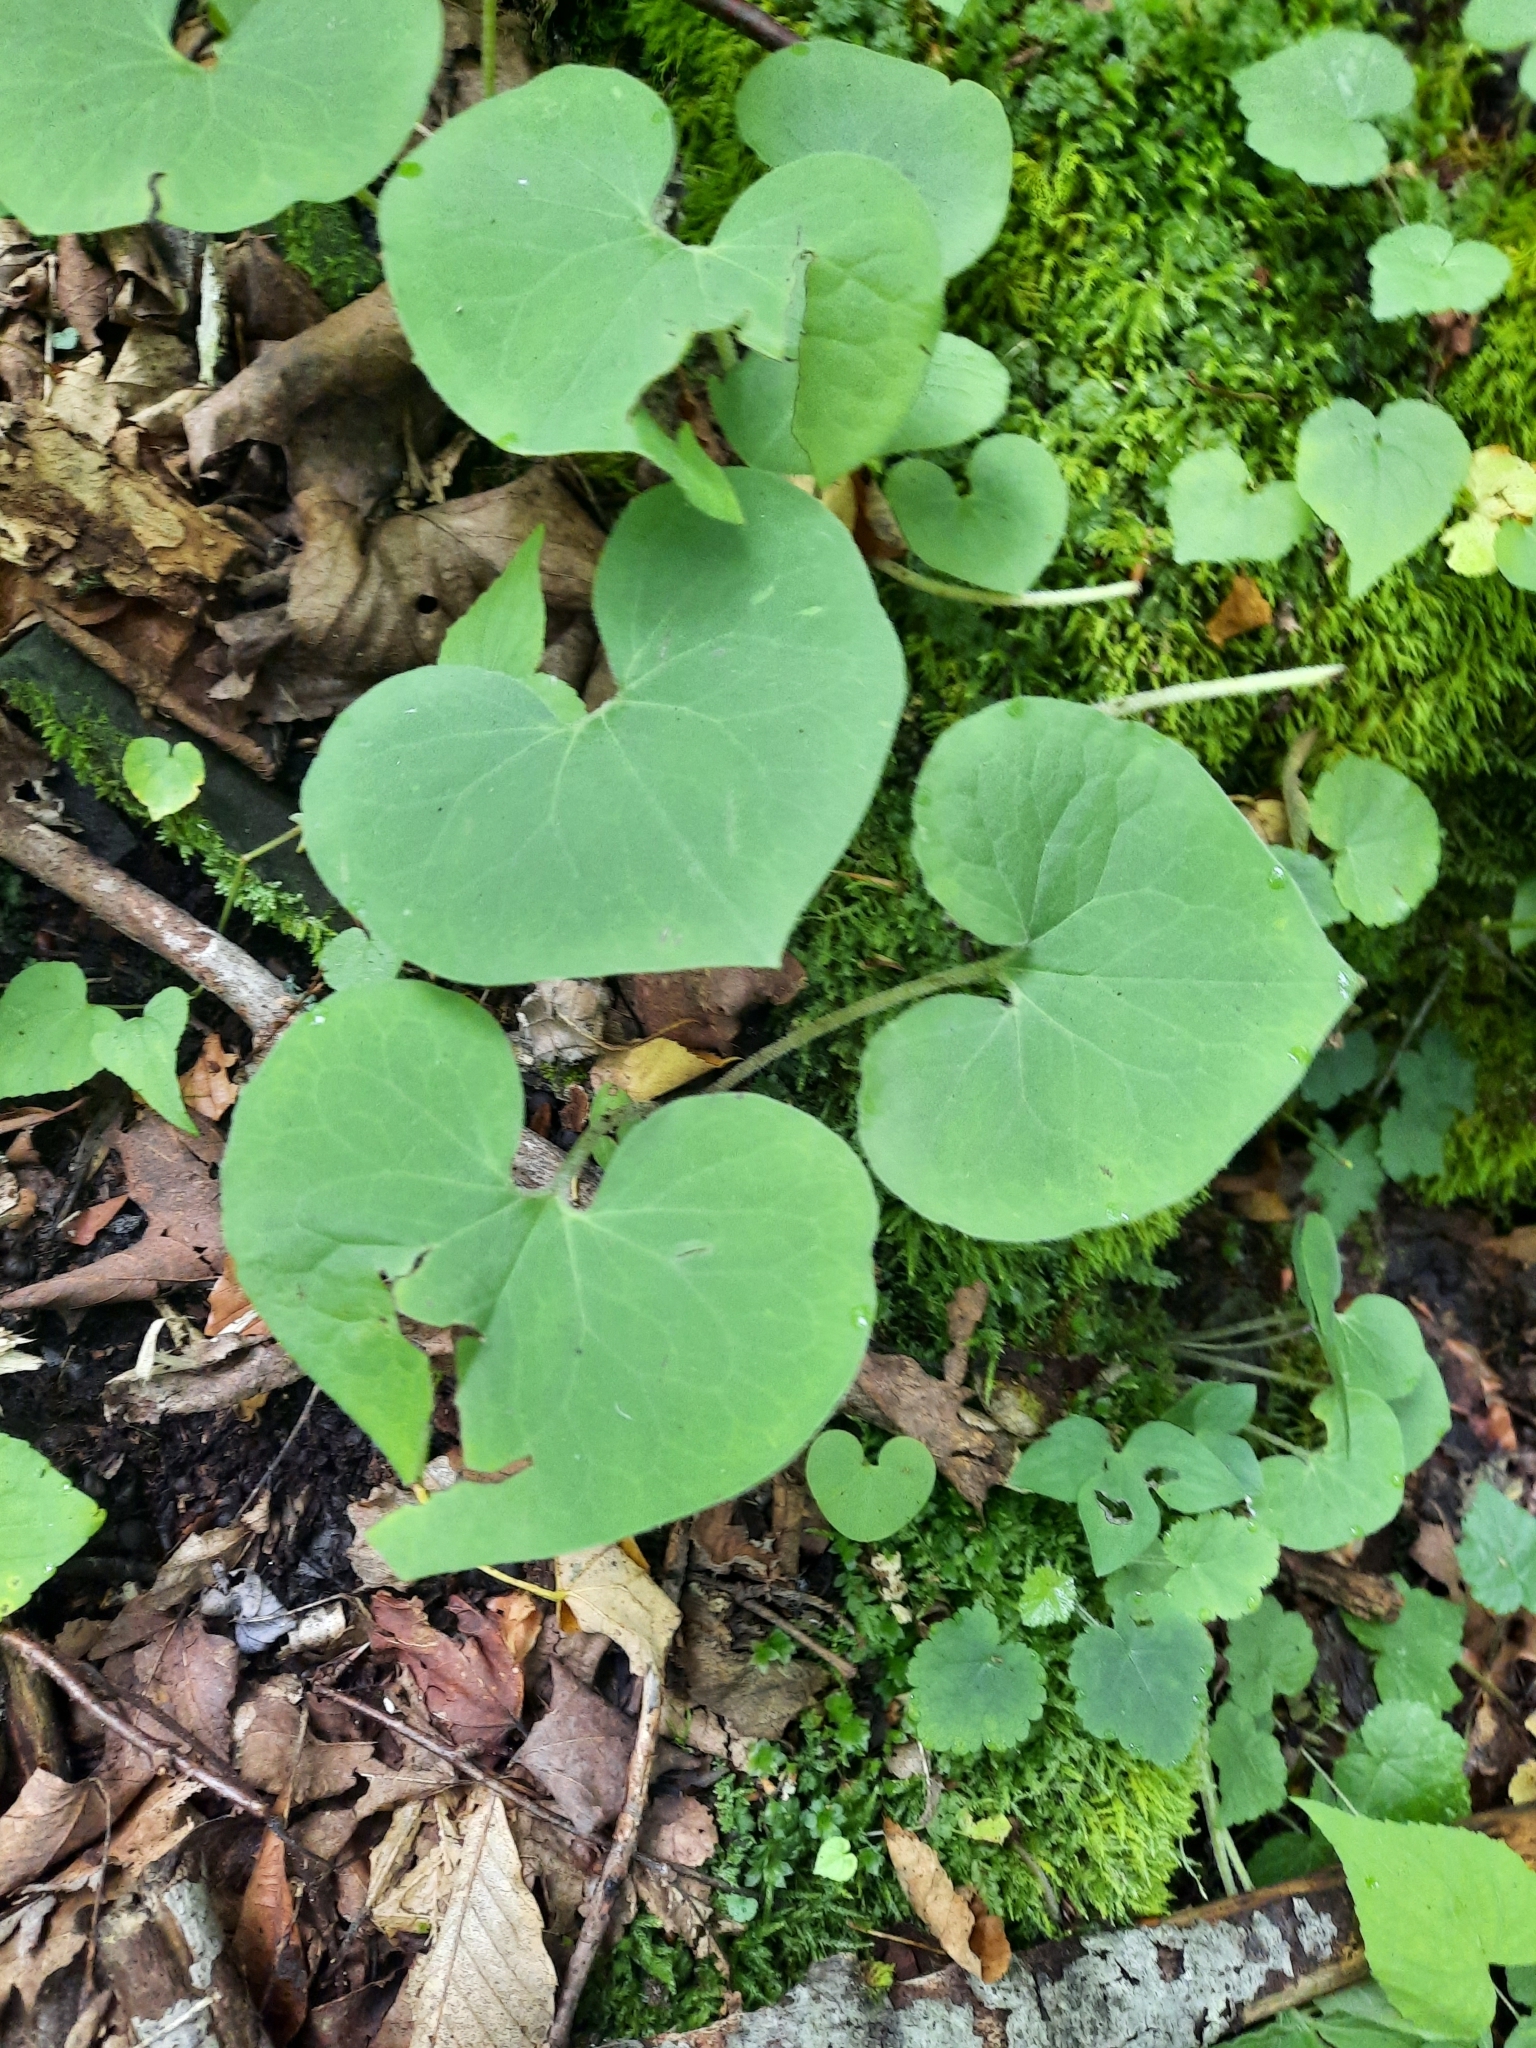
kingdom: Plantae
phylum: Tracheophyta
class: Magnoliopsida
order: Piperales
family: Aristolochiaceae
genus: Asarum
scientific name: Asarum canadense
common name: Wild ginger
